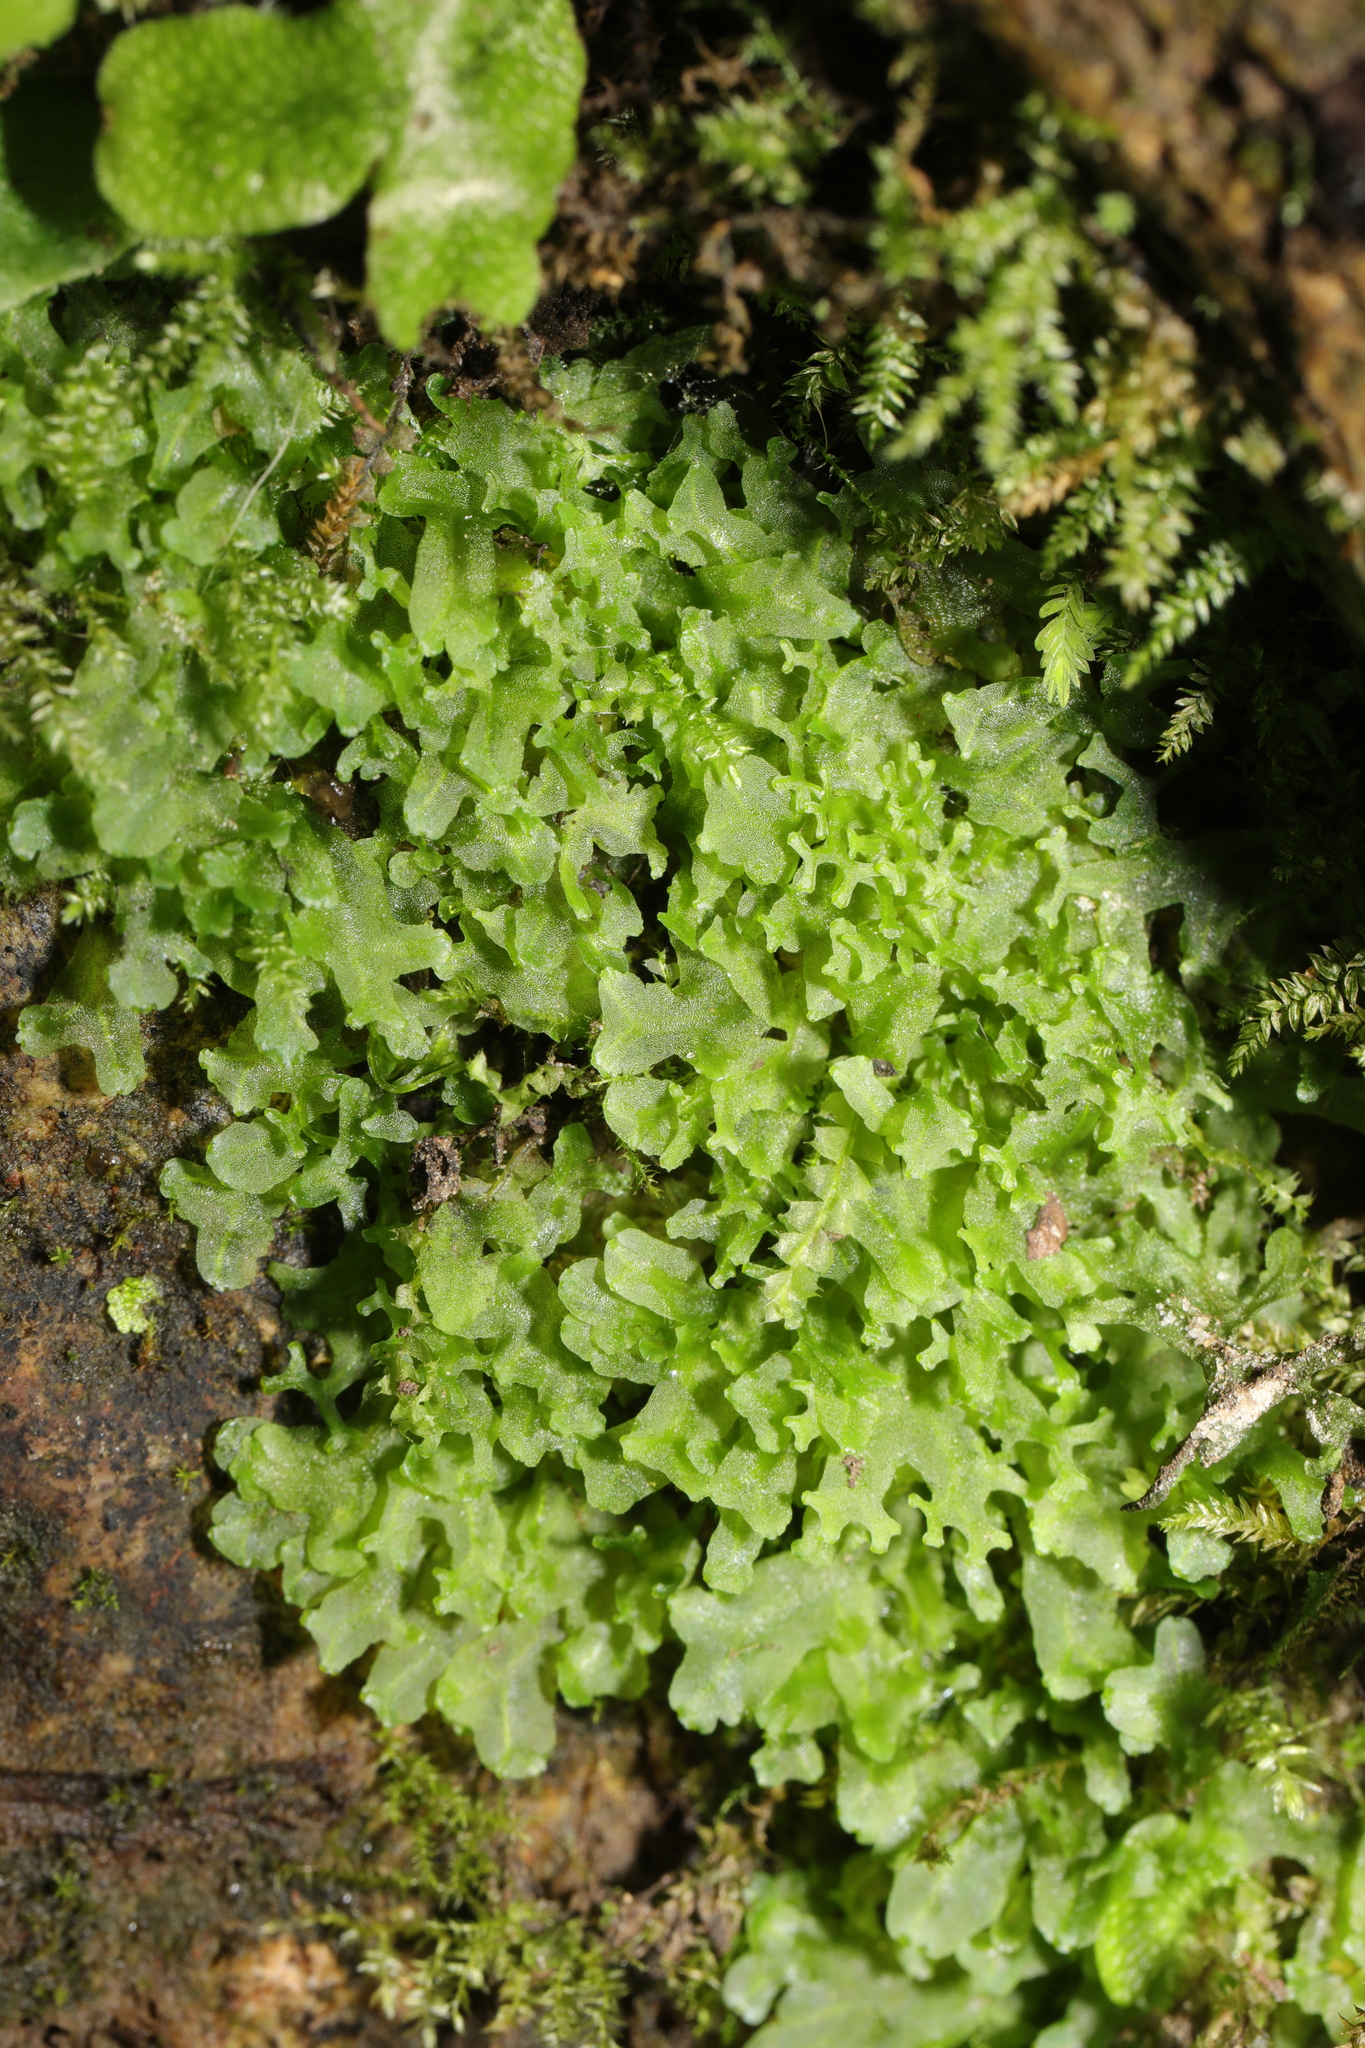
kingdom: Plantae
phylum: Marchantiophyta
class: Jungermanniopsida
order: Pelliales
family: Pelliaceae
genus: Apopellia
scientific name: Apopellia endiviifolia
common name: Endive pellia
